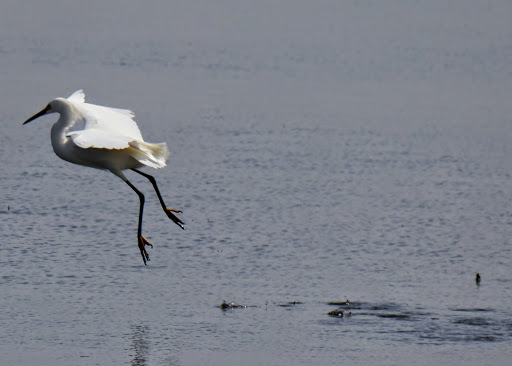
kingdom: Animalia
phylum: Chordata
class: Aves
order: Pelecaniformes
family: Ardeidae
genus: Egretta
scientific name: Egretta thula
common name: Snowy egret
